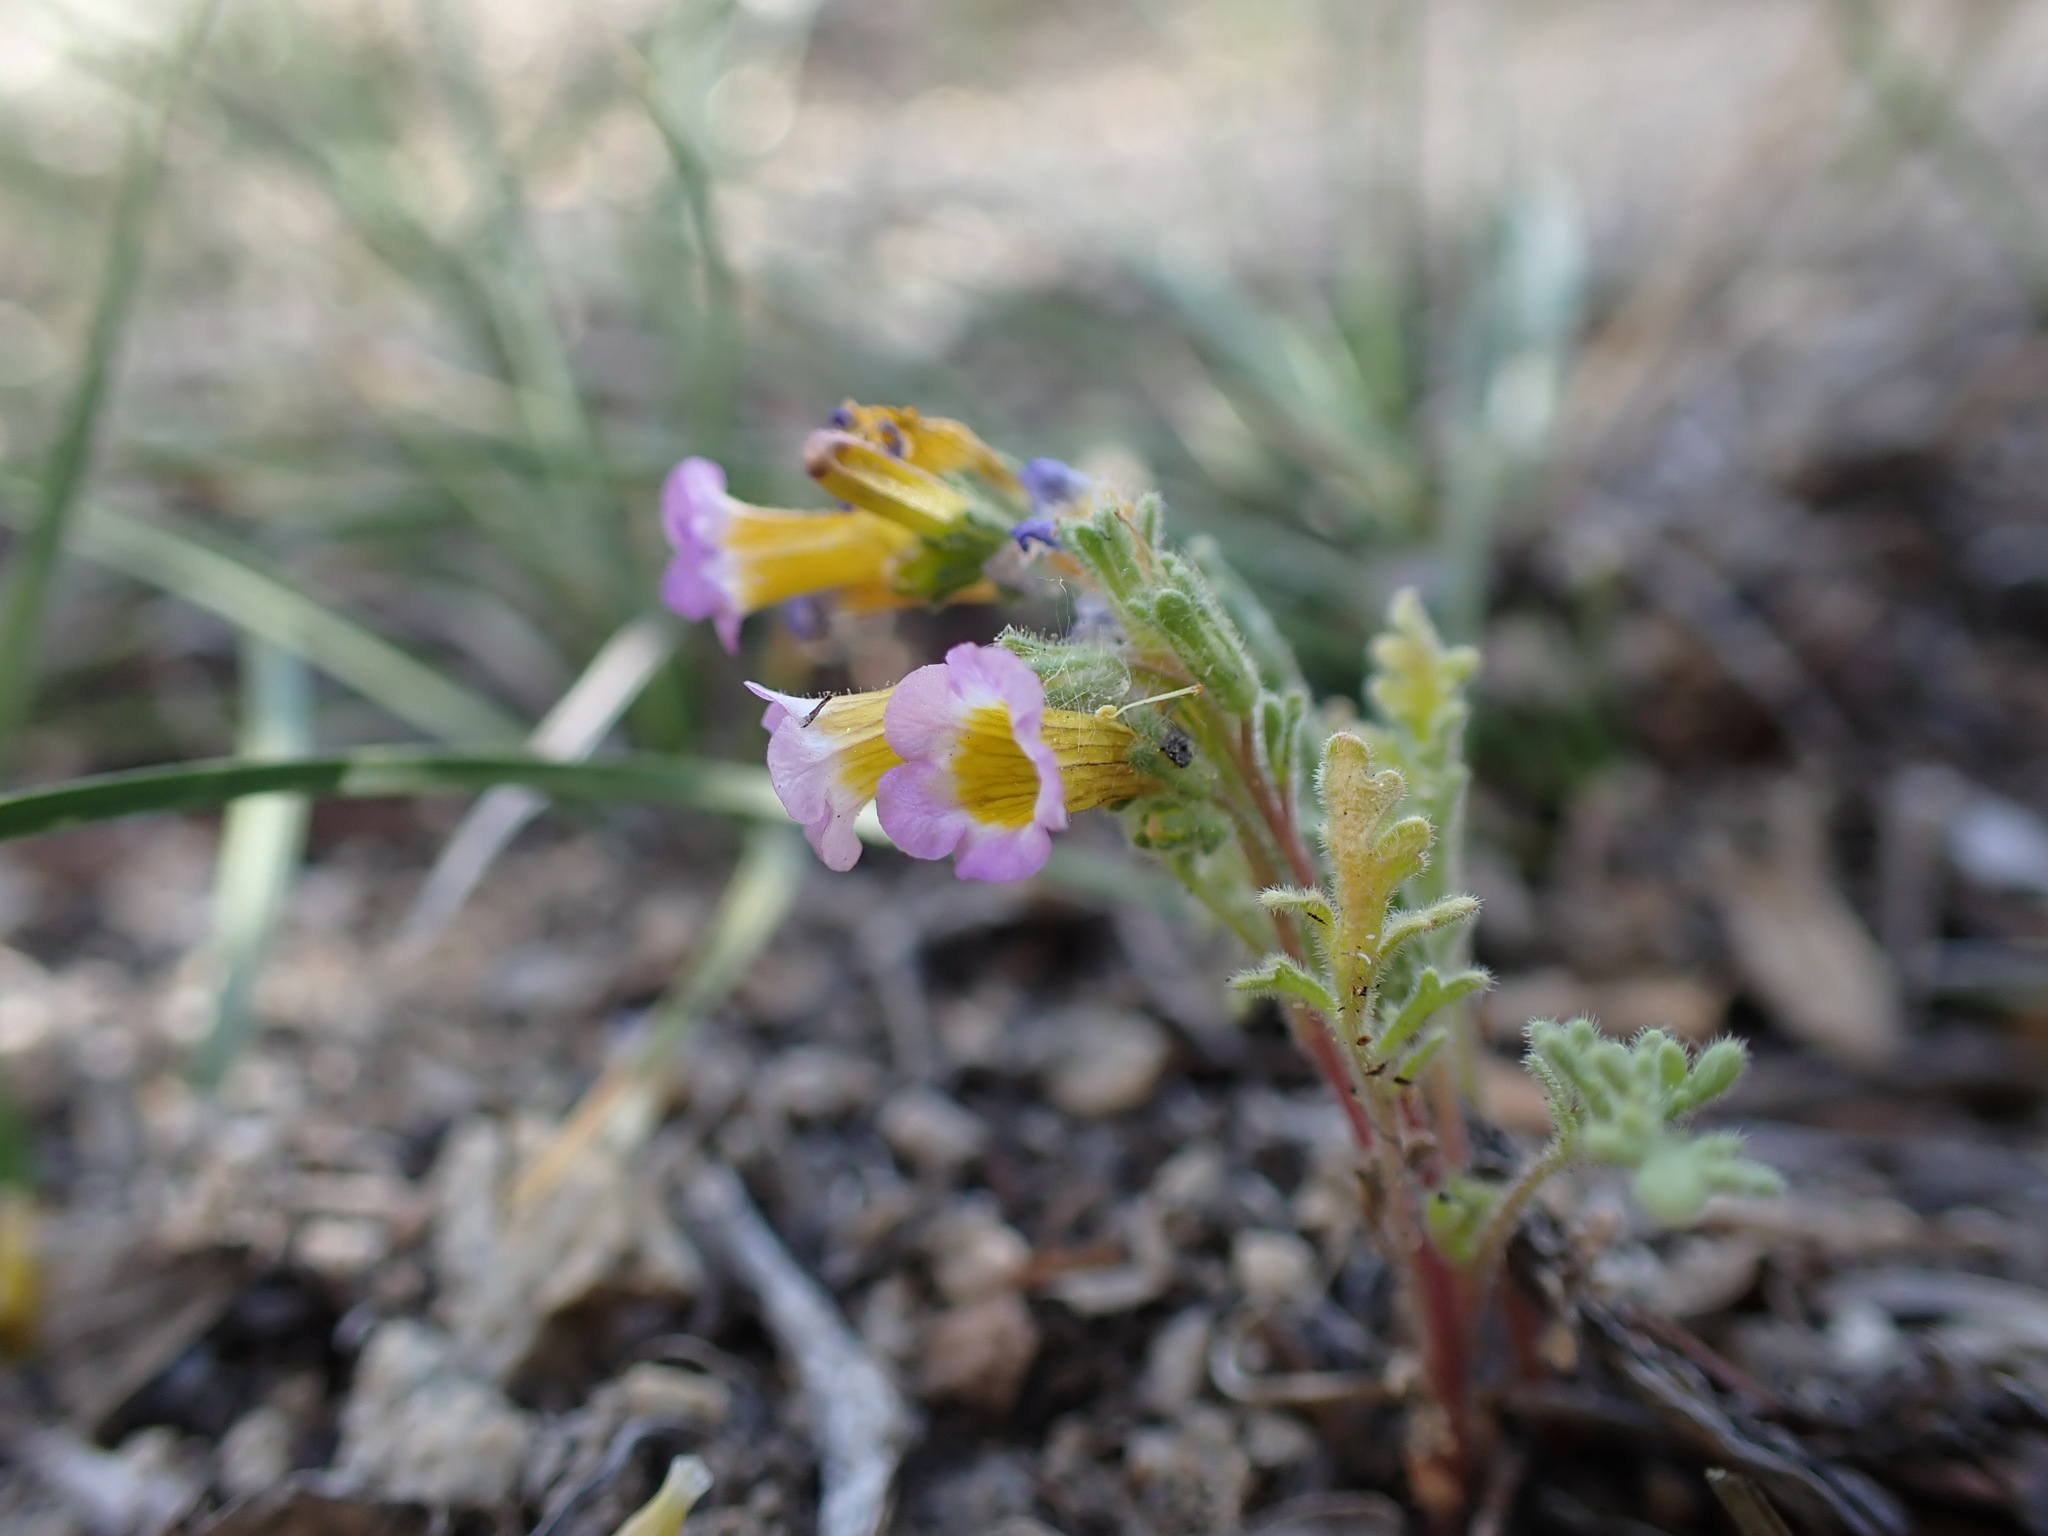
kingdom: Plantae
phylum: Tracheophyta
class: Magnoliopsida
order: Boraginales
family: Hydrophyllaceae
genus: Phacelia
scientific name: Phacelia bicolor
